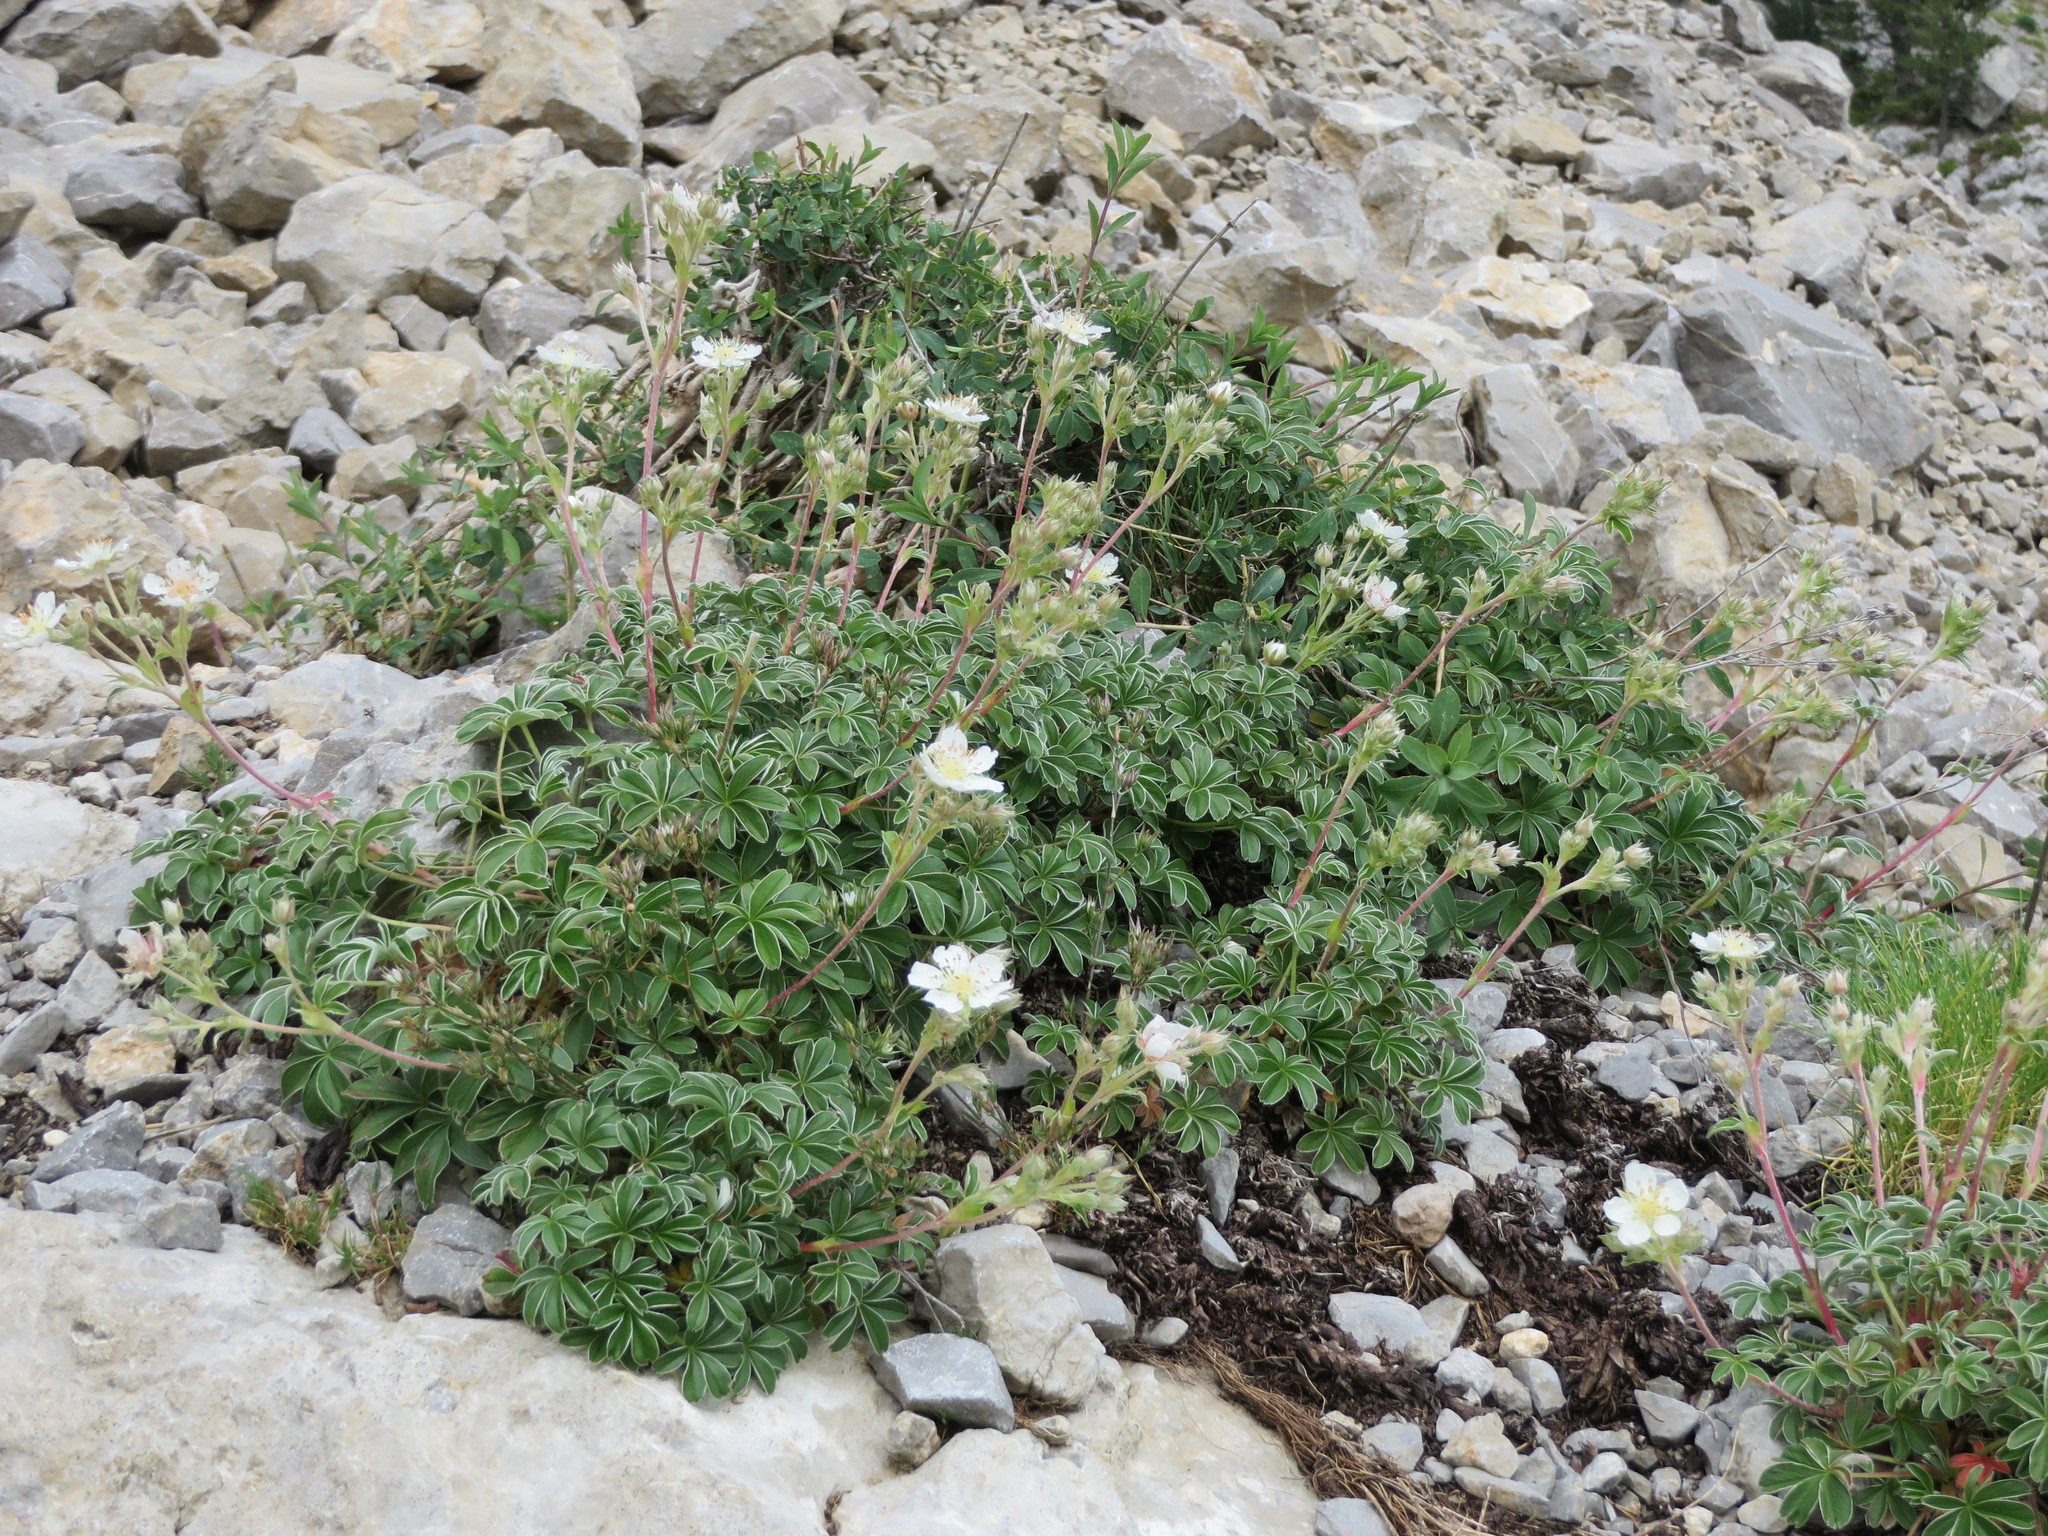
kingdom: Plantae
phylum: Tracheophyta
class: Magnoliopsida
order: Rosales
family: Rosaceae
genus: Potentilla
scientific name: Potentilla alchimilloides
